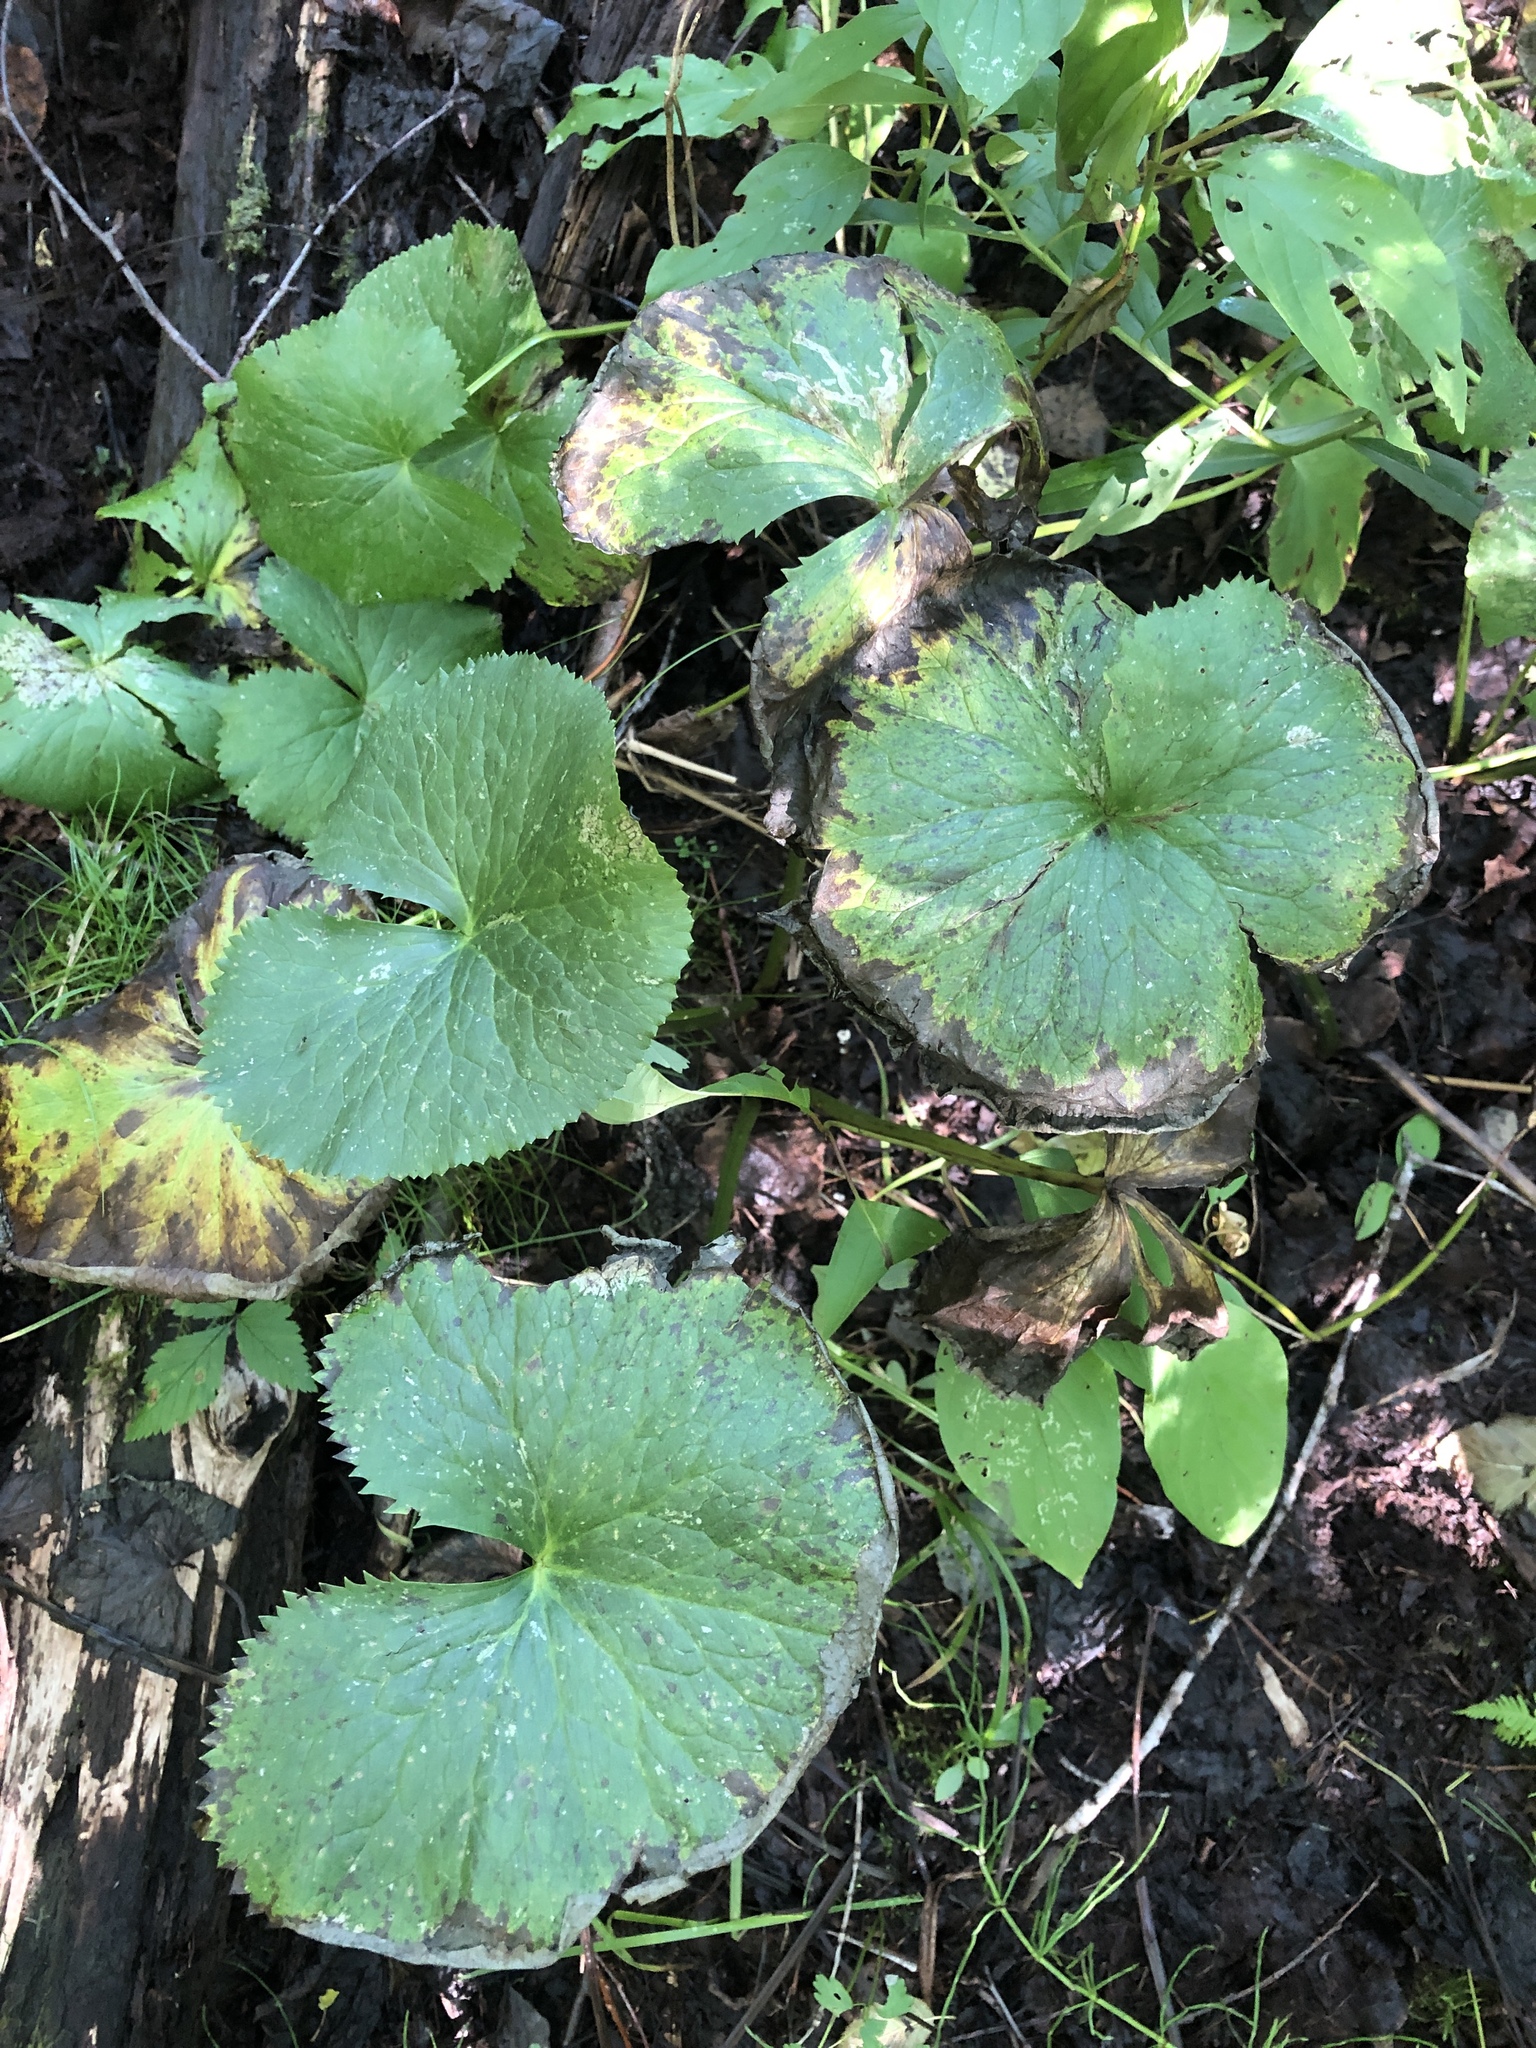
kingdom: Plantae
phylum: Tracheophyta
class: Magnoliopsida
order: Ranunculales
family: Ranunculaceae
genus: Caltha
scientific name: Caltha palustris
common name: Marsh marigold
